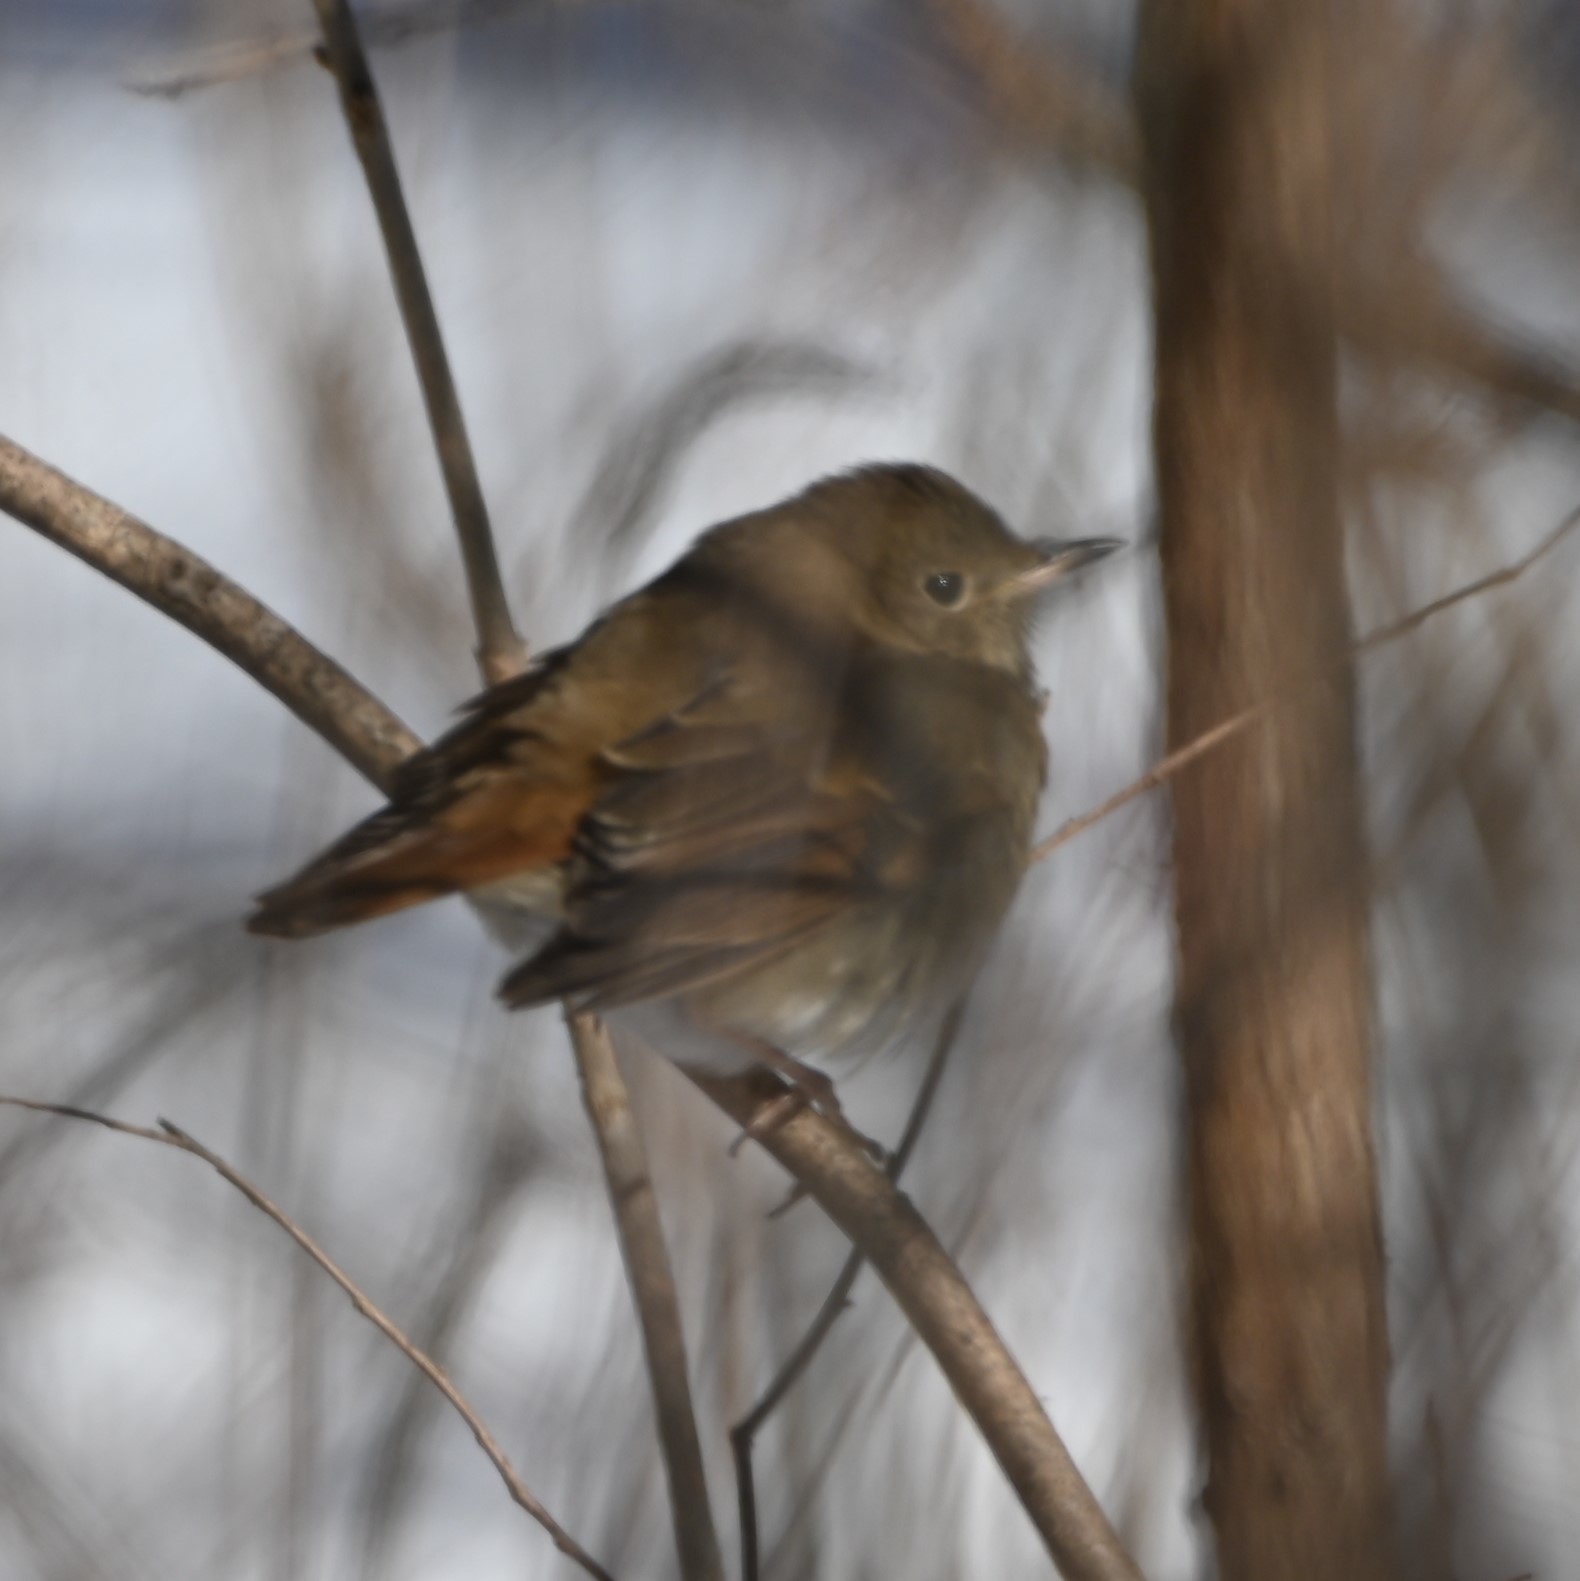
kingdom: Animalia
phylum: Chordata
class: Aves
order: Passeriformes
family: Turdidae
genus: Catharus
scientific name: Catharus guttatus
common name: Hermit thrush
